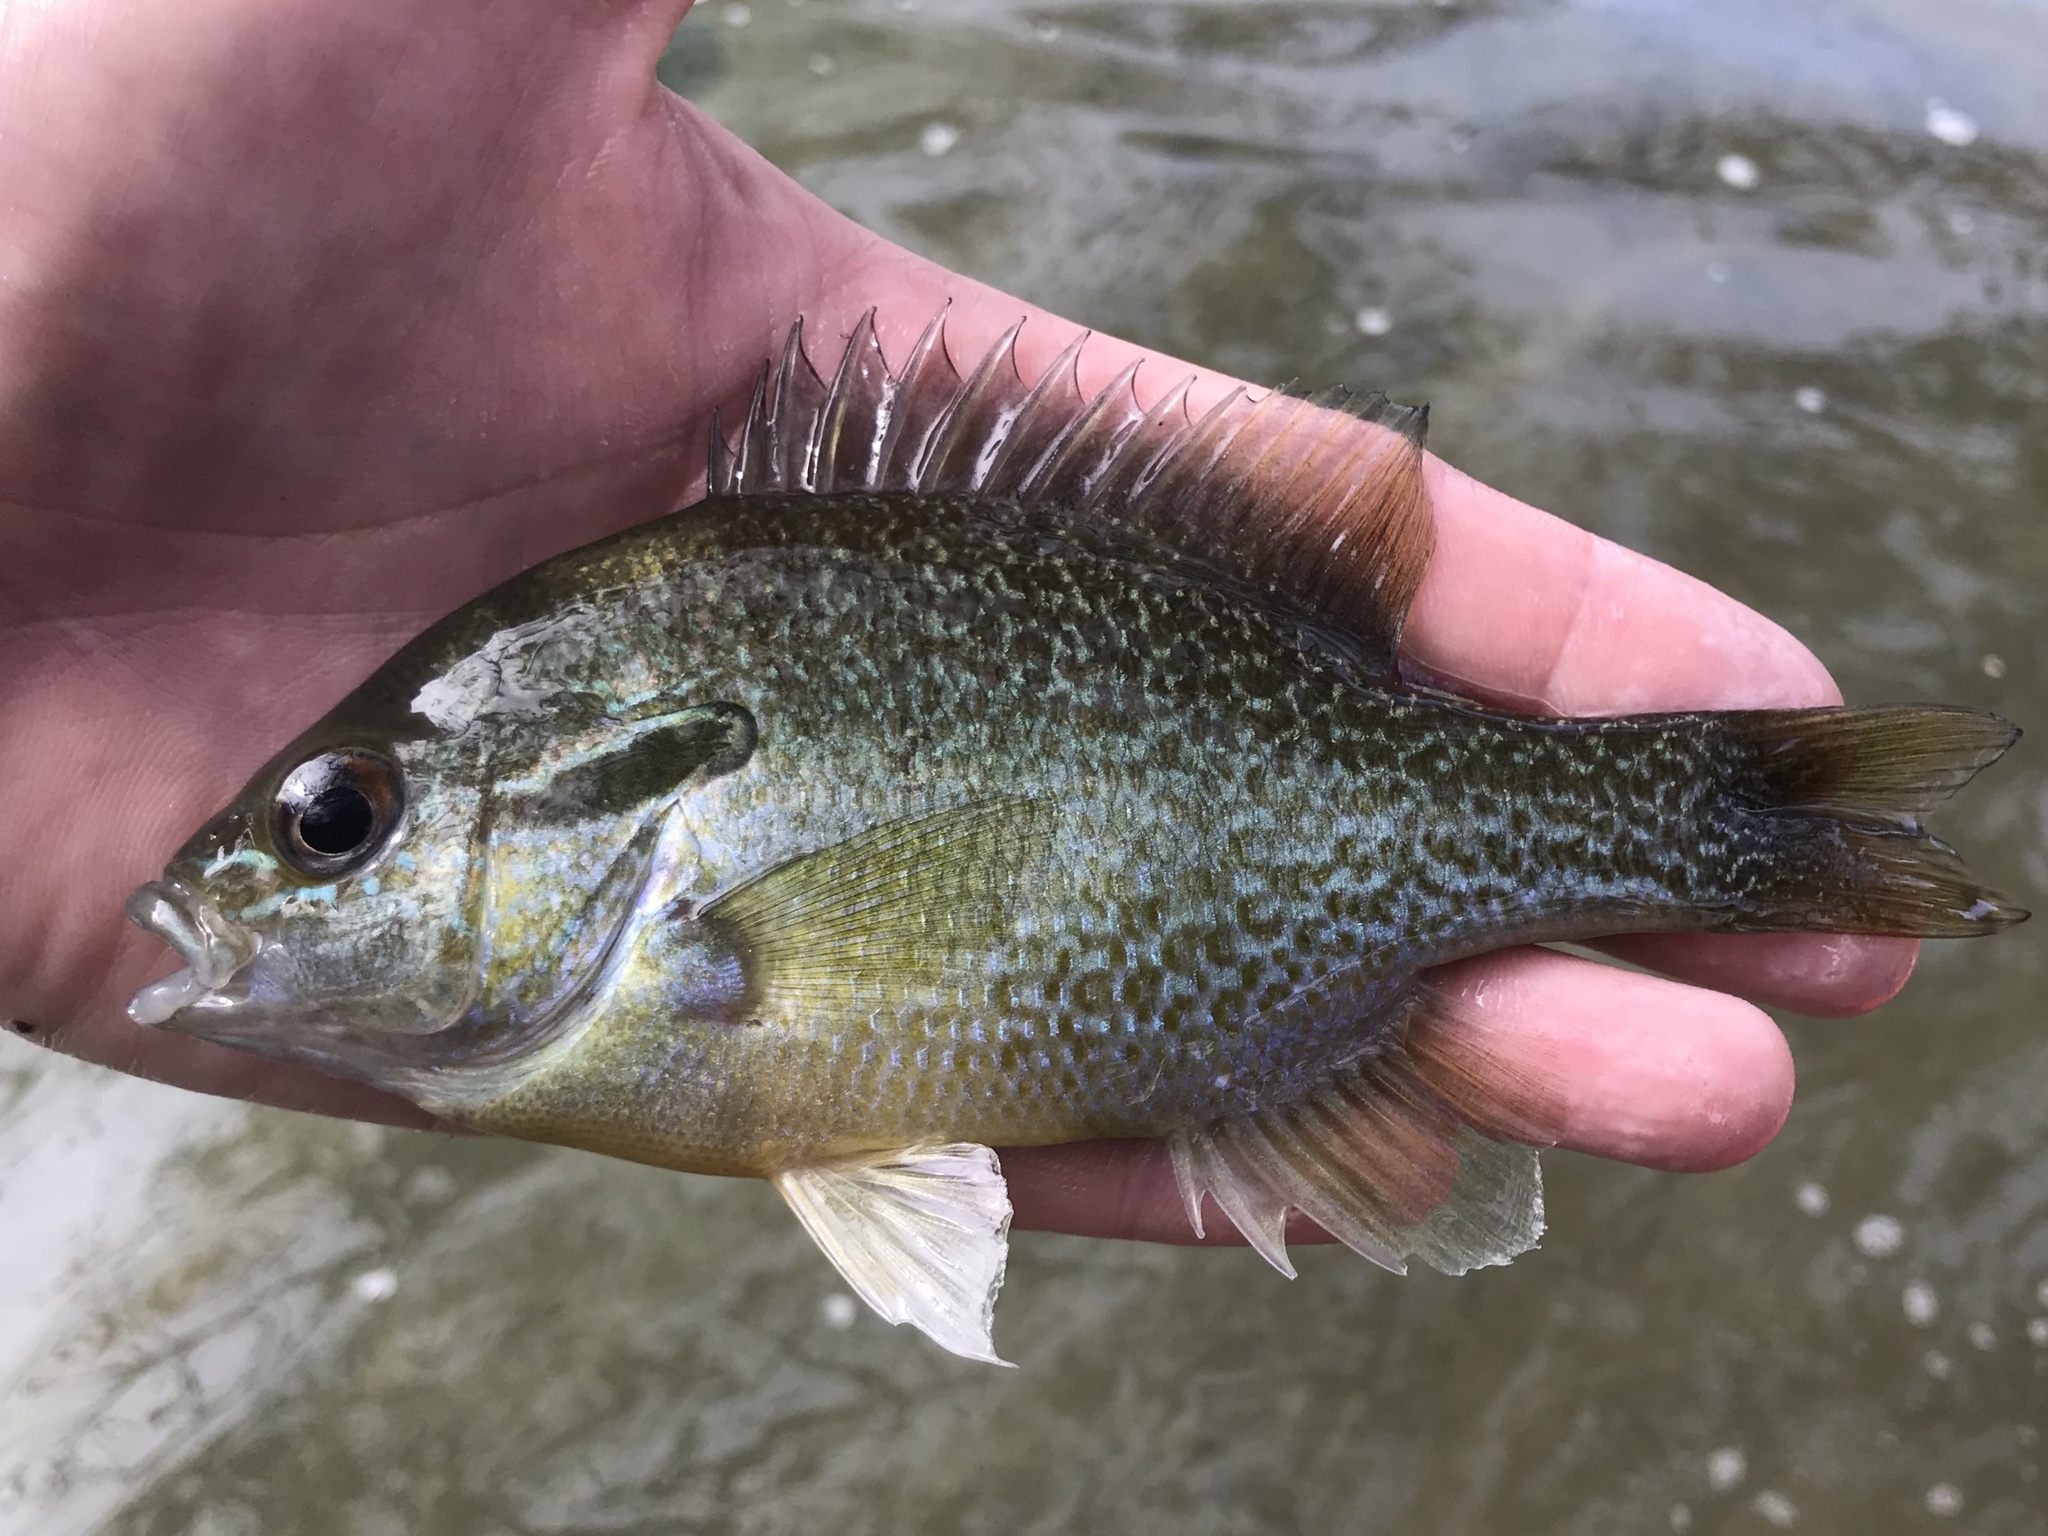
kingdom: Animalia
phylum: Chordata
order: Perciformes
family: Centrarchidae
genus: Lepomis
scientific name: Lepomis auritus
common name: Redbreast sunfish
